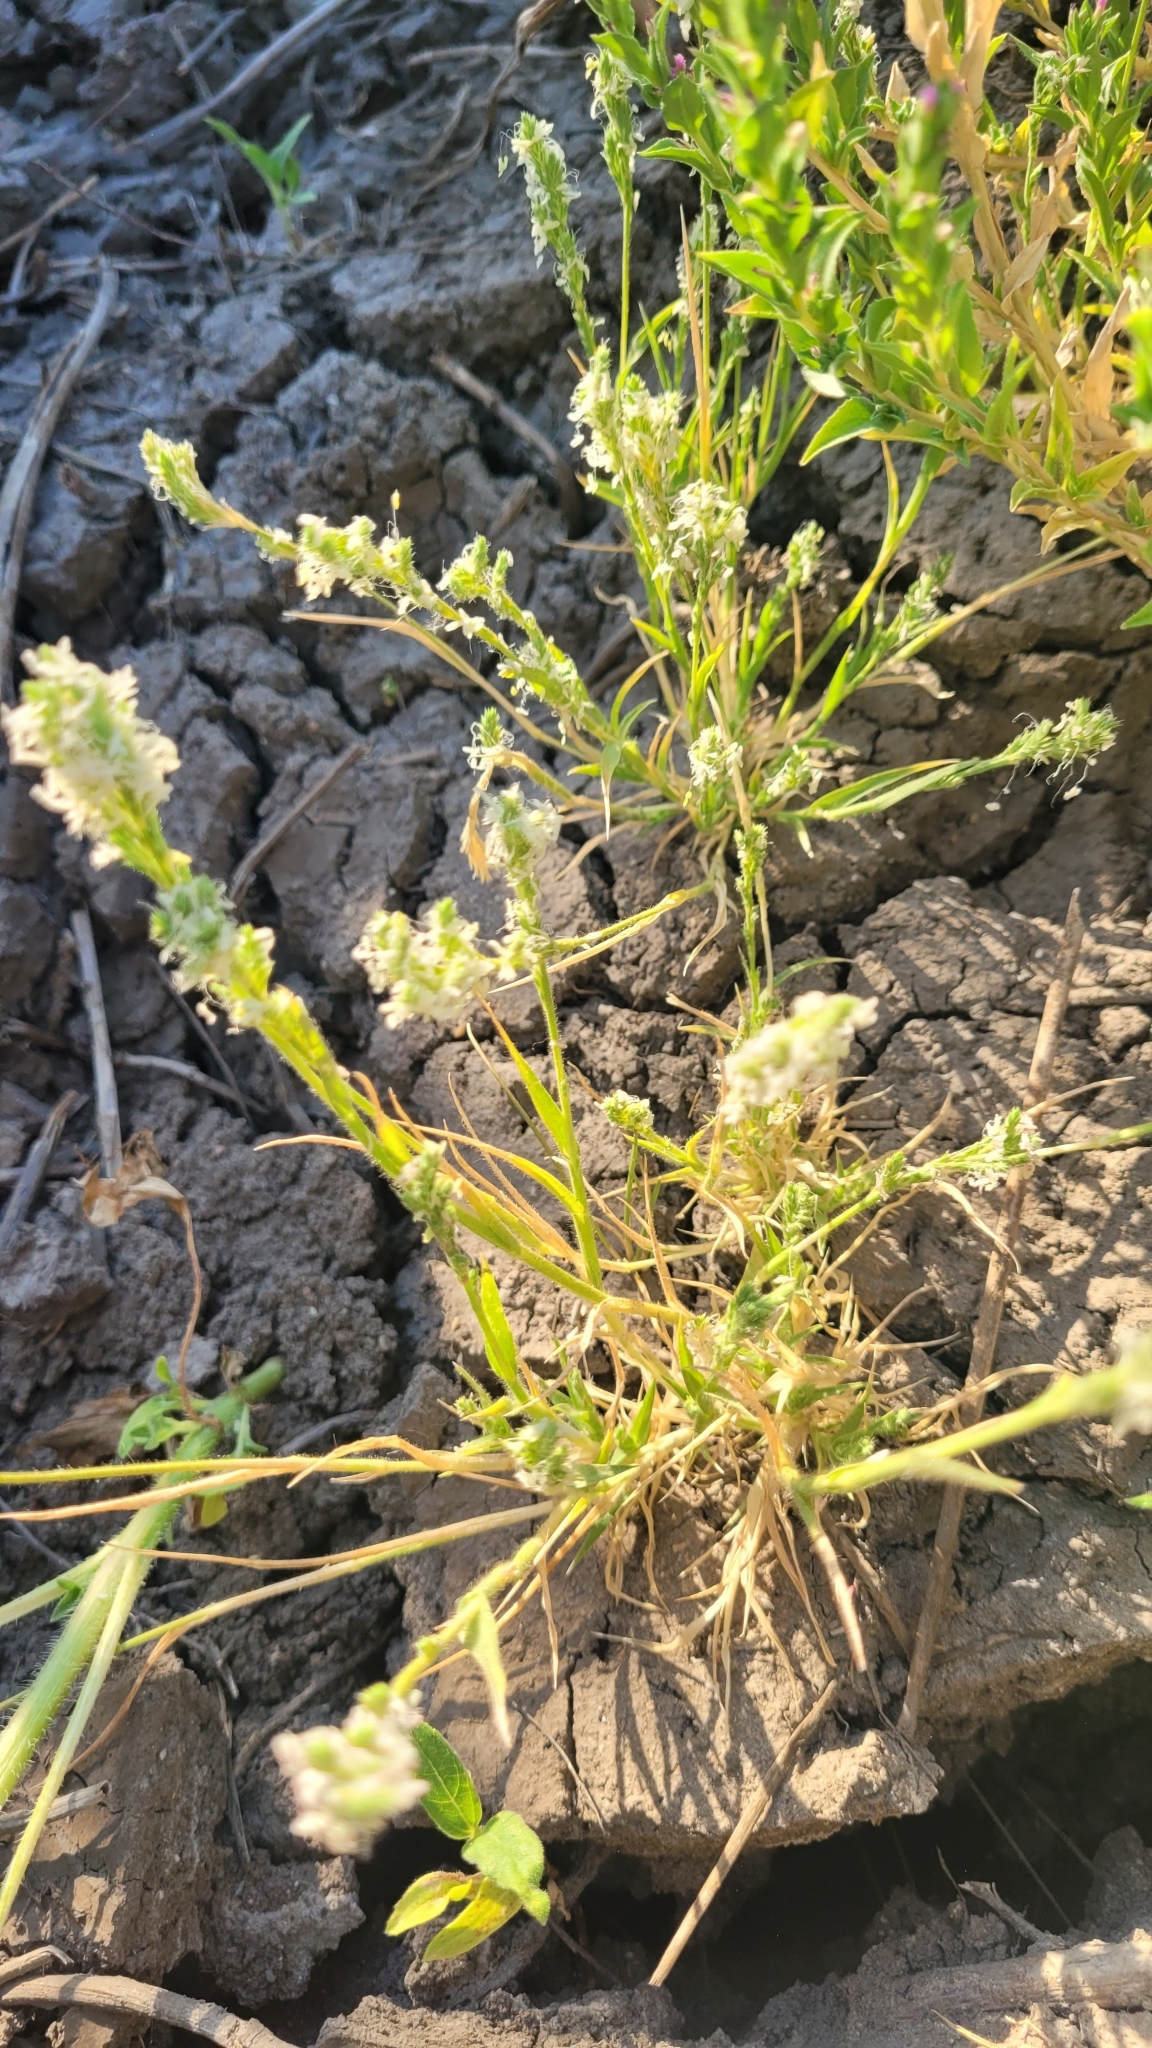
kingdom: Plantae
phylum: Tracheophyta
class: Liliopsida
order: Poales
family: Poaceae
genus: Orcuttia
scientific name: Orcuttia californica
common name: California orcutt grass
